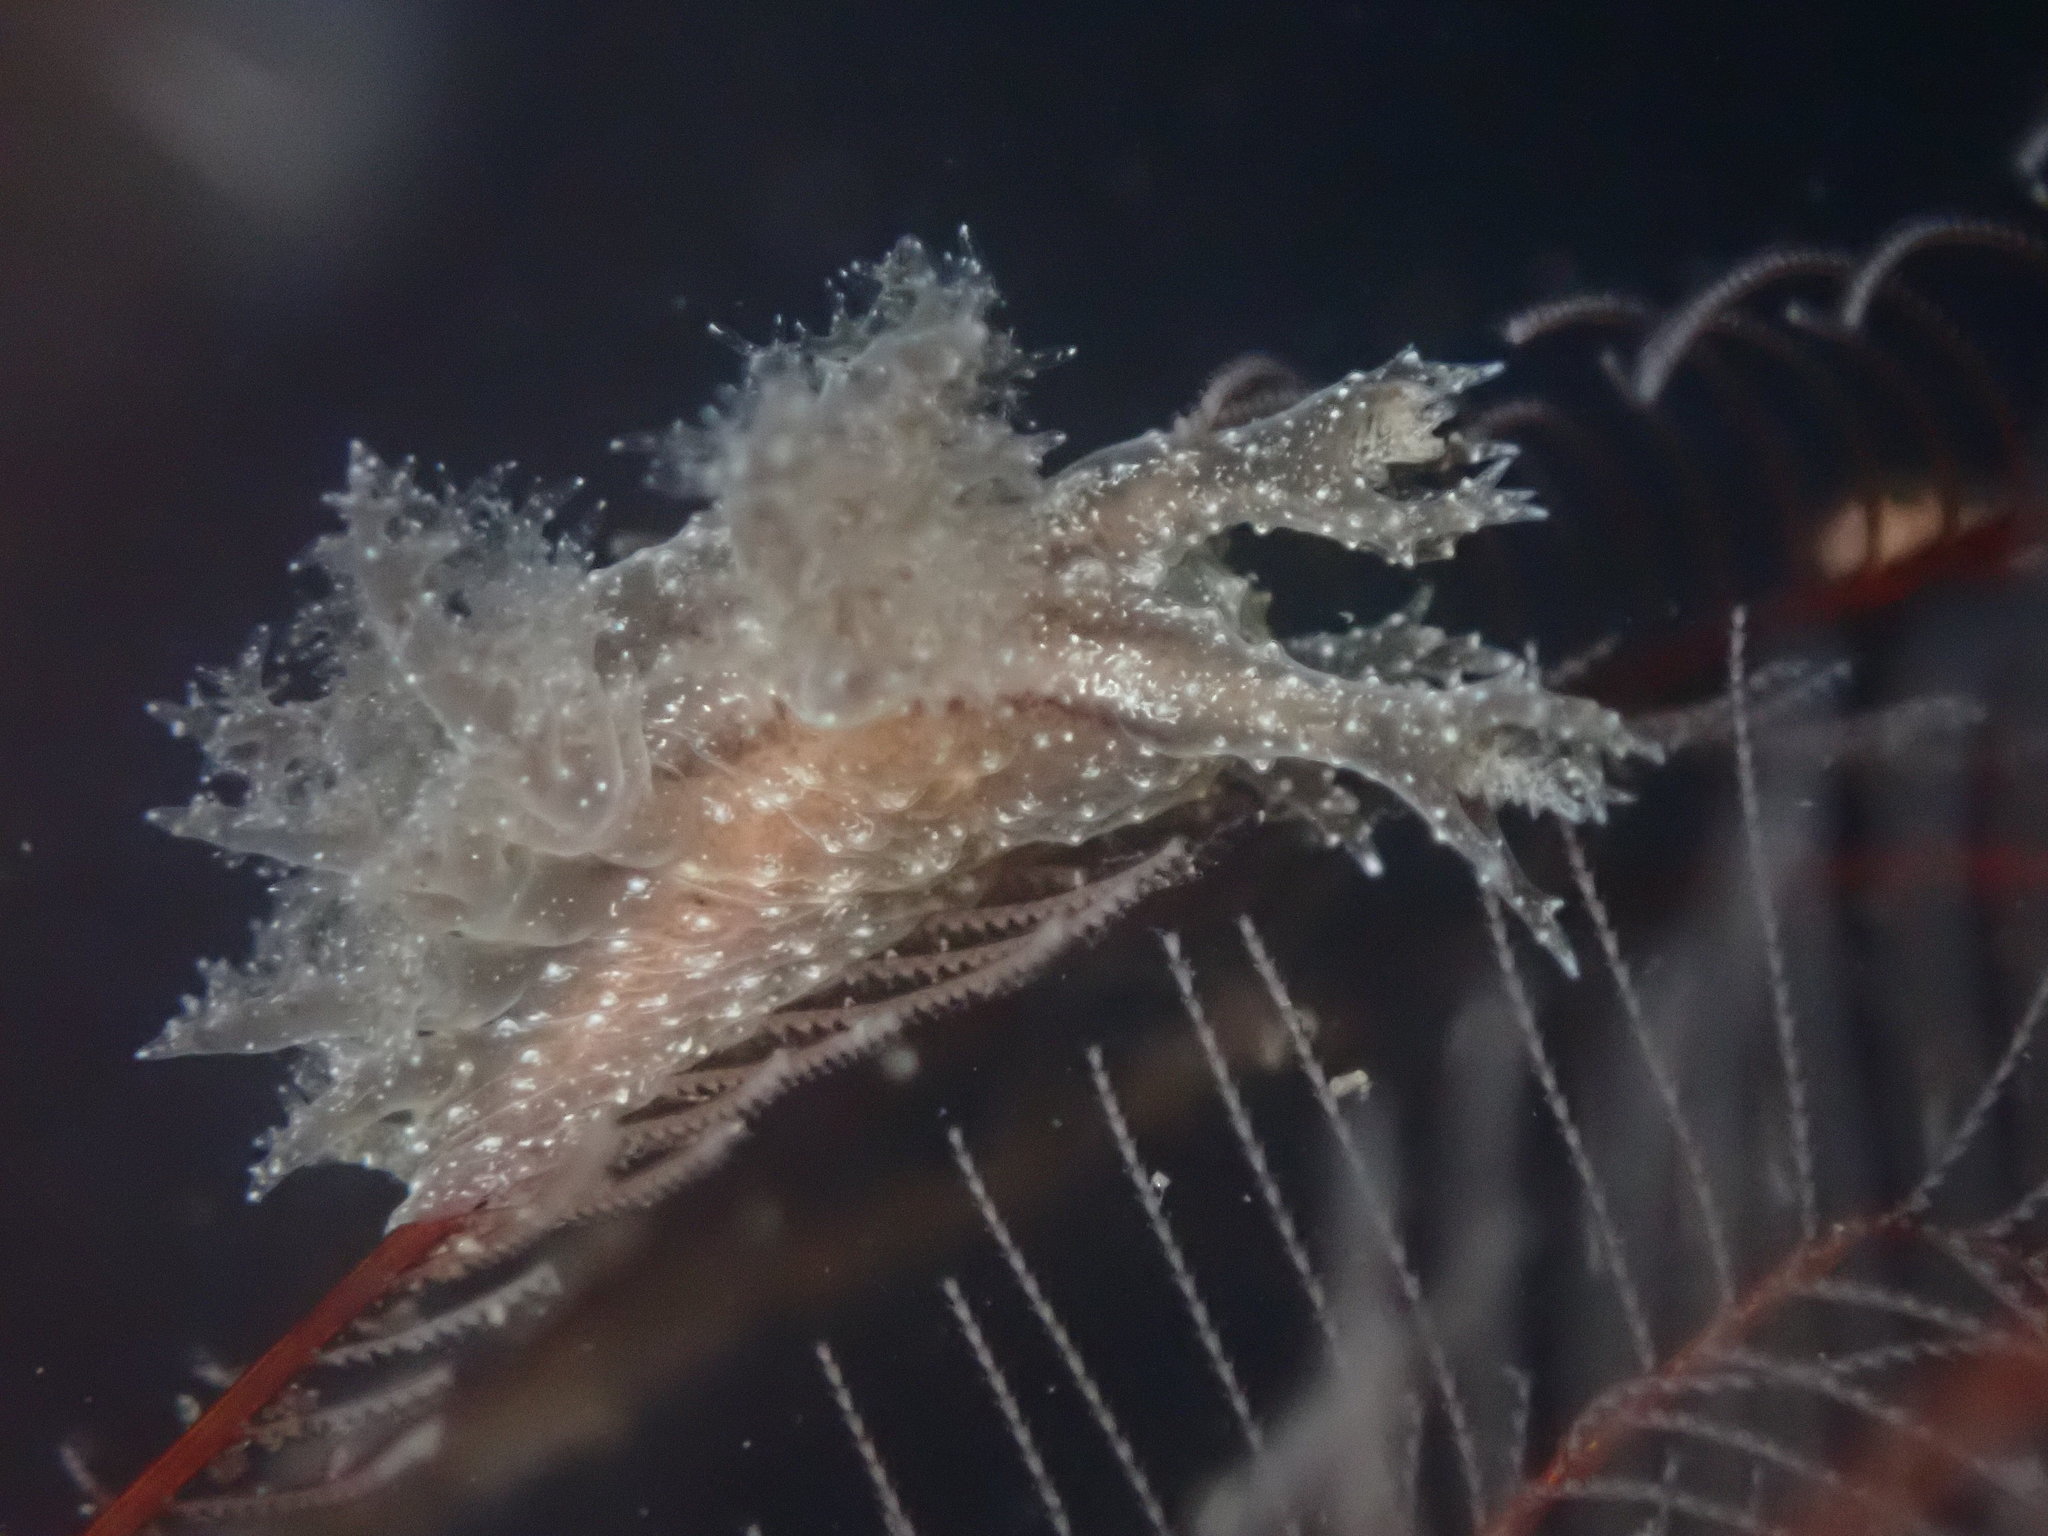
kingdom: Animalia
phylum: Mollusca
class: Gastropoda
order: Nudibranchia
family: Dendronotidae
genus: Dendronotus
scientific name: Dendronotus subramosus
